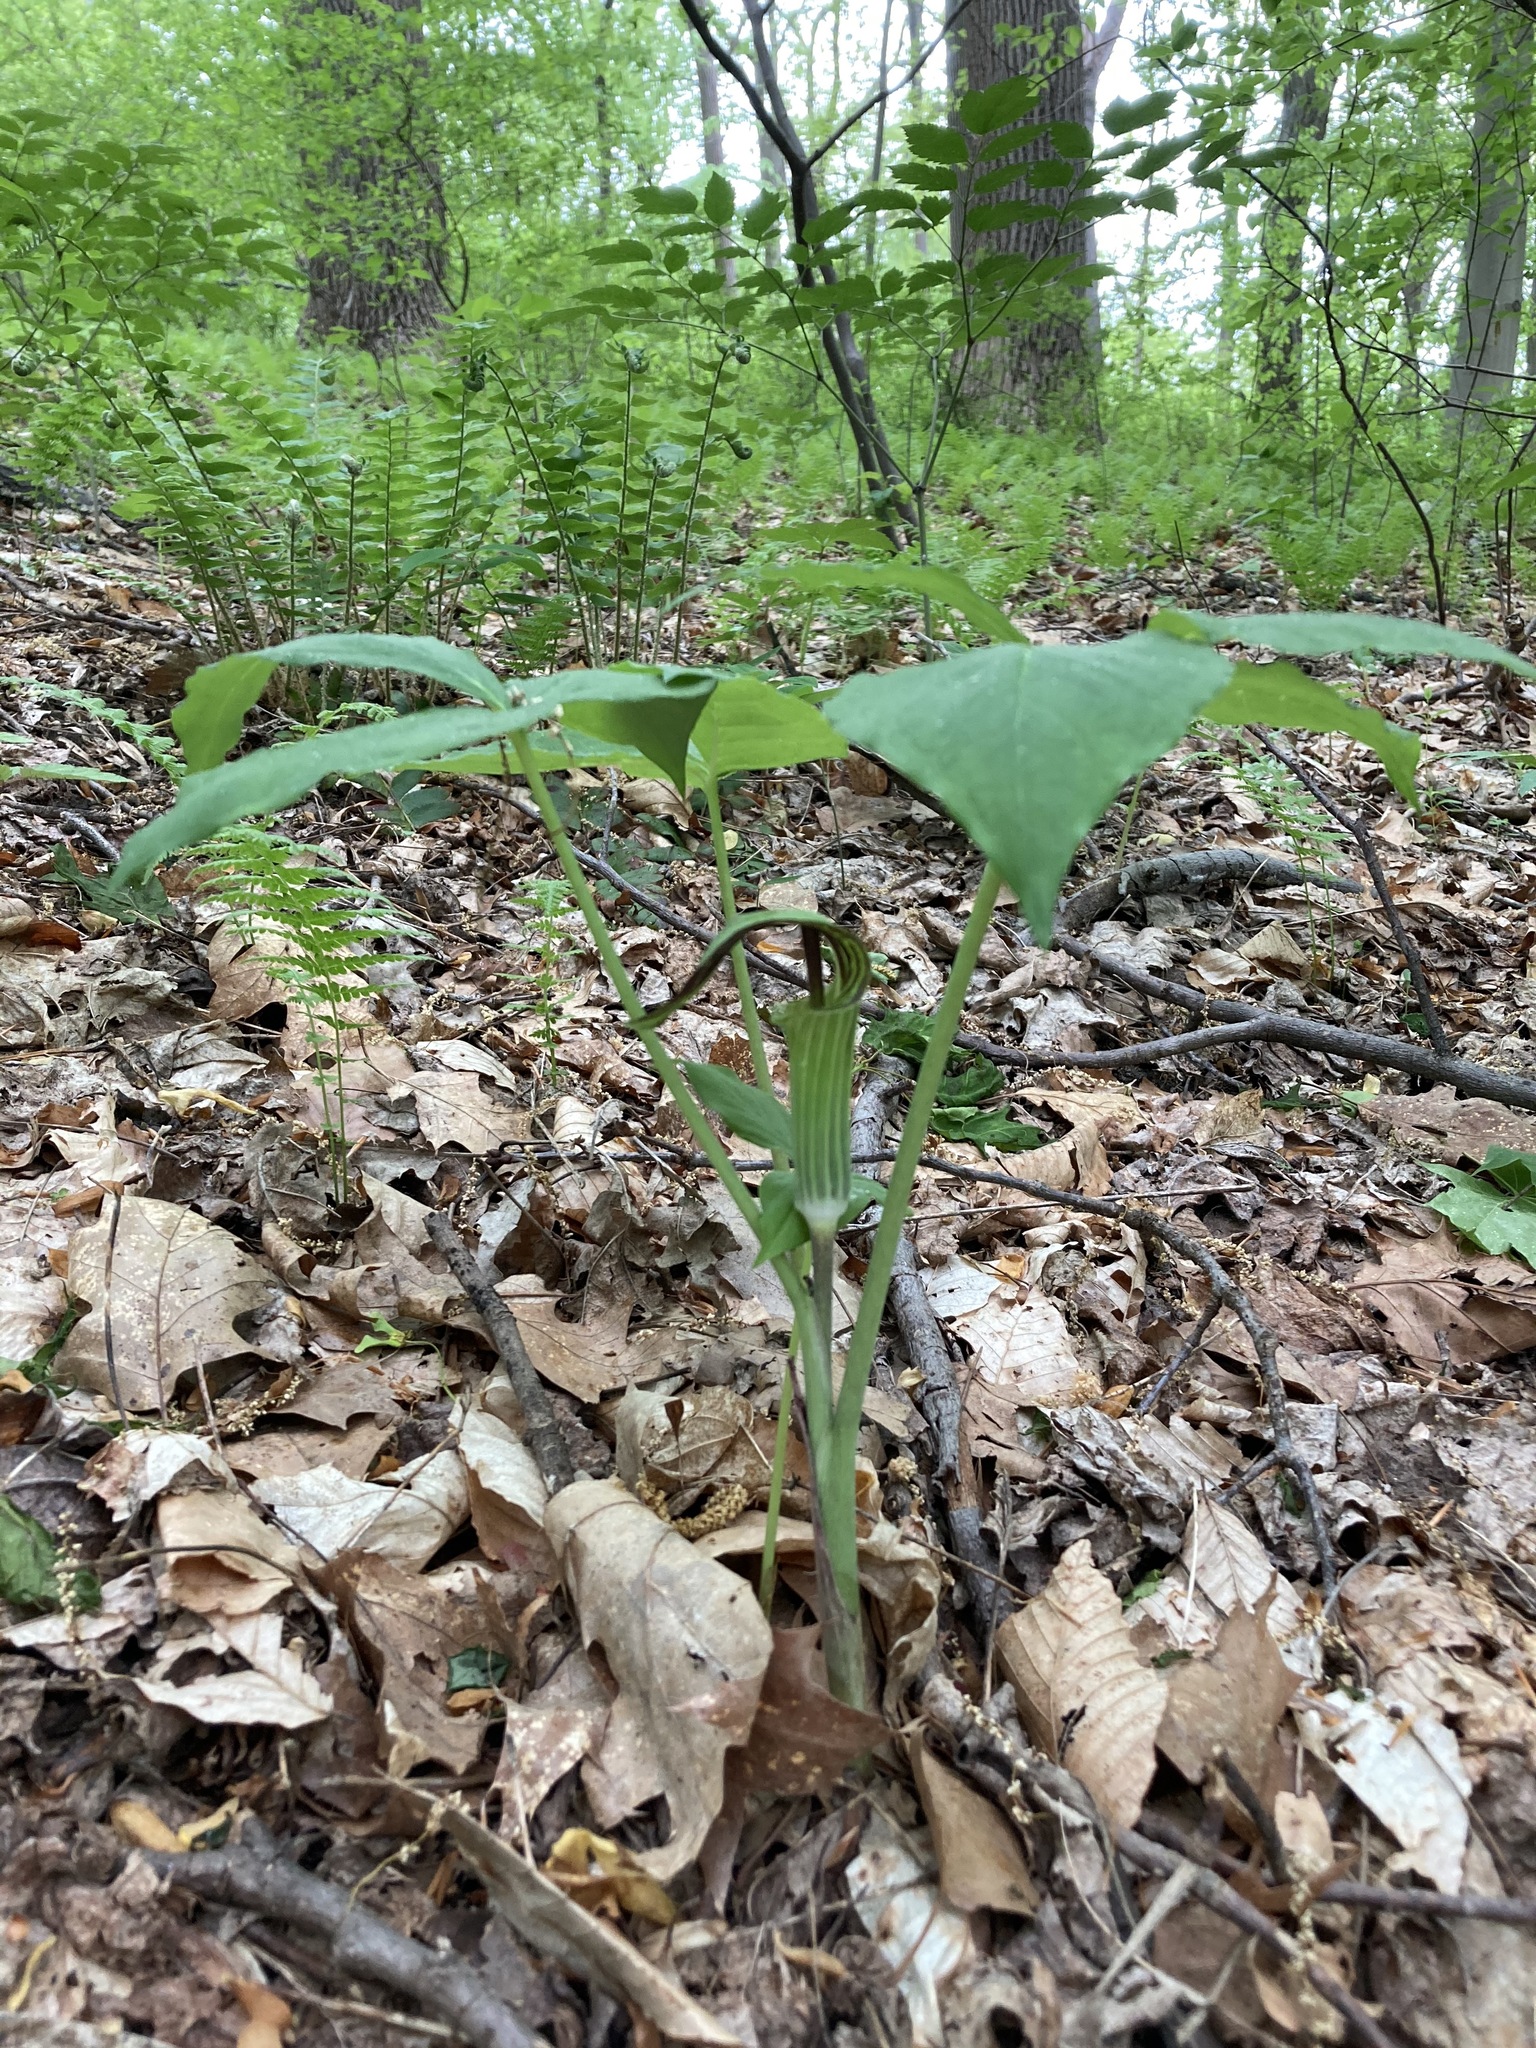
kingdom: Plantae
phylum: Tracheophyta
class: Liliopsida
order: Alismatales
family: Araceae
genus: Arisaema
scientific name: Arisaema triphyllum
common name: Jack-in-the-pulpit
